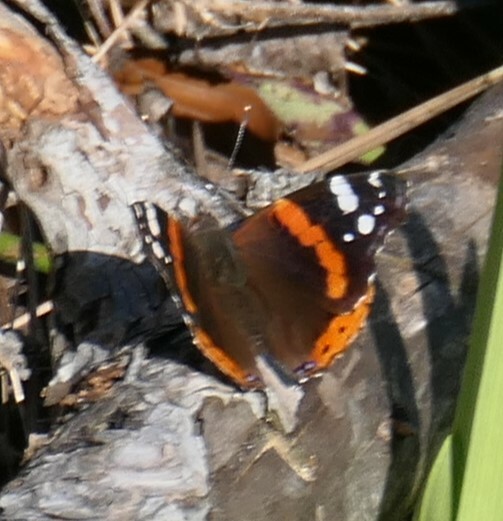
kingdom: Animalia
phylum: Arthropoda
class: Insecta
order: Lepidoptera
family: Nymphalidae
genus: Vanessa
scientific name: Vanessa atalanta
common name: Red admiral
